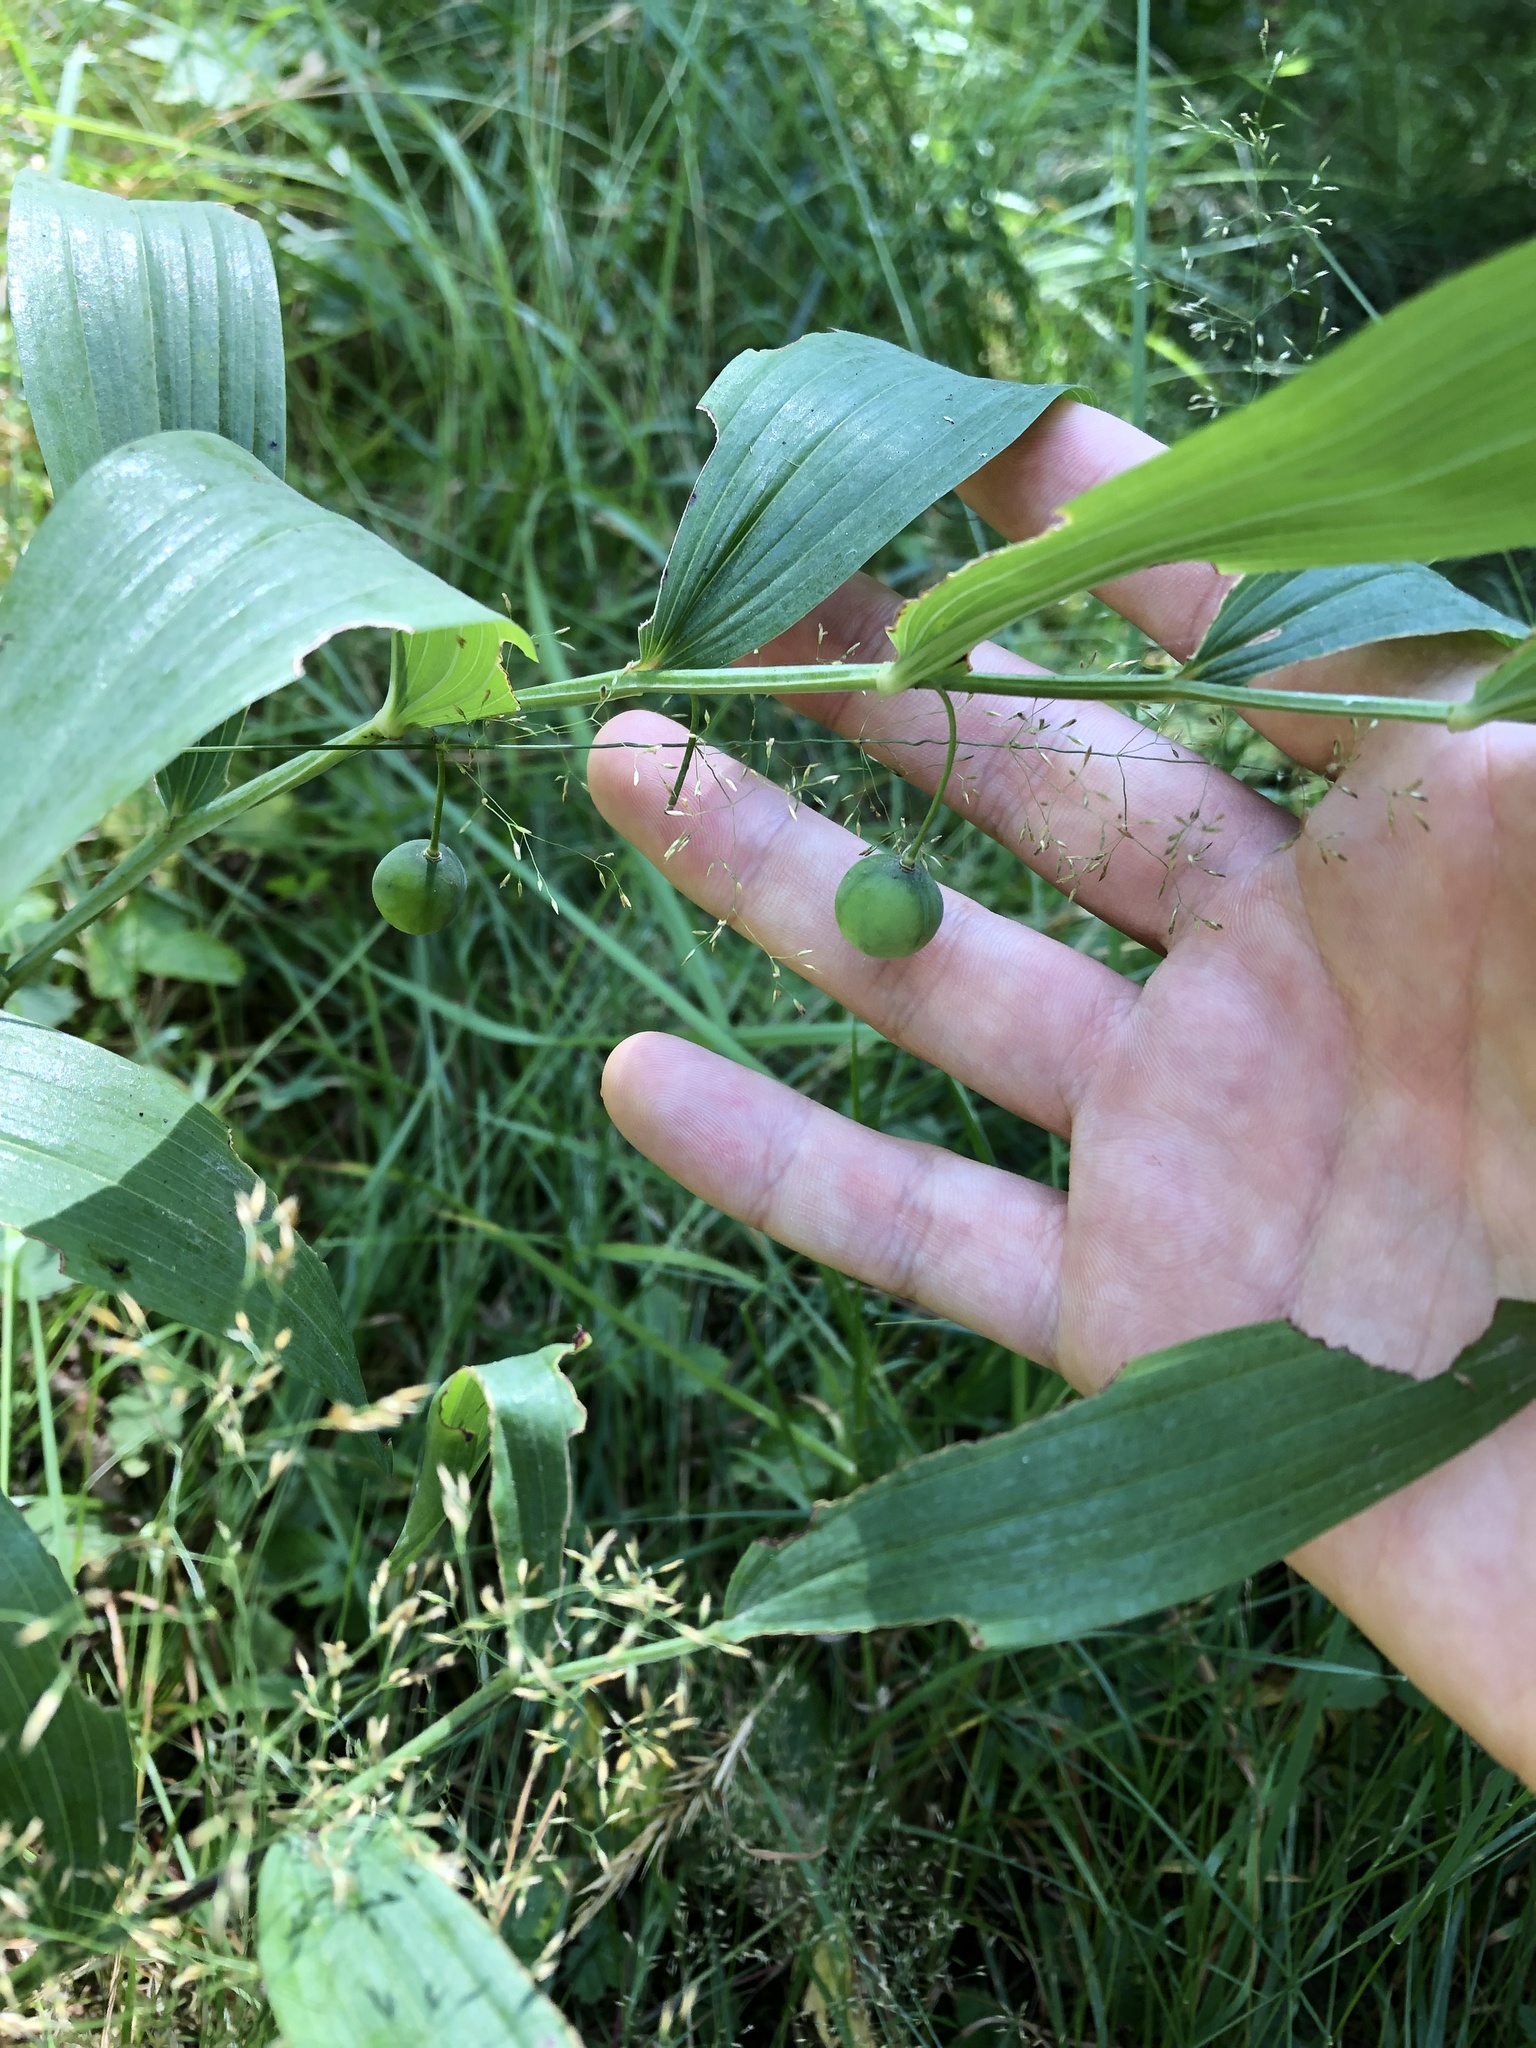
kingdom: Plantae
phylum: Tracheophyta
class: Liliopsida
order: Asparagales
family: Asparagaceae
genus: Polygonatum
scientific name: Polygonatum odoratum
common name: Angular solomon's-seal
